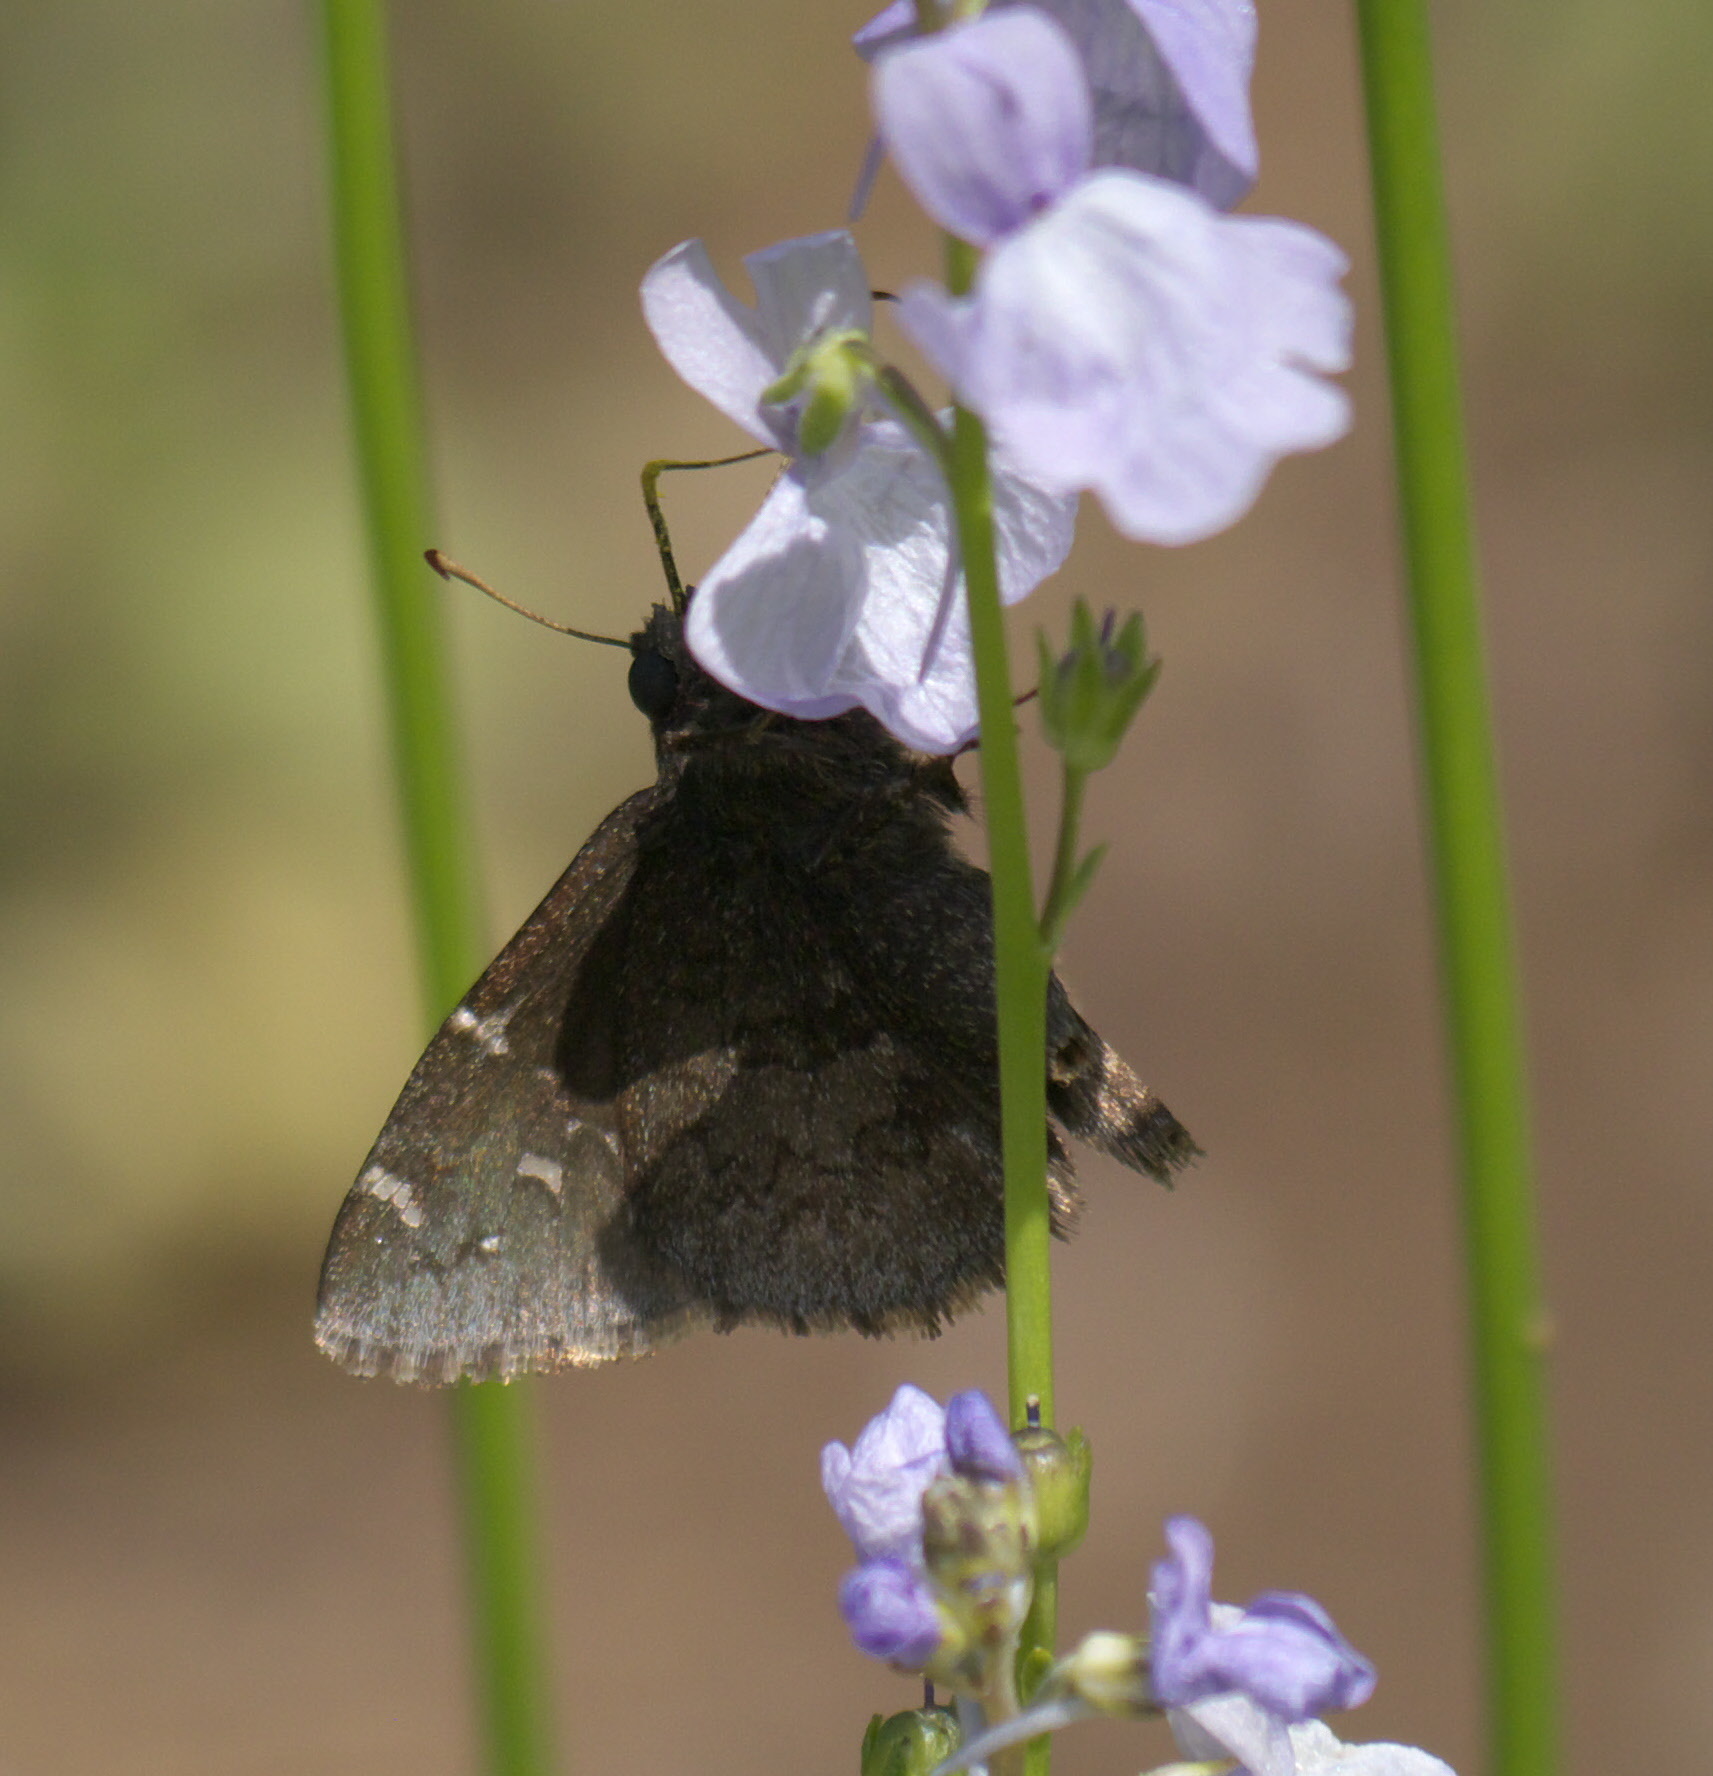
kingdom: Animalia
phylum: Arthropoda
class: Insecta
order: Lepidoptera
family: Hesperiidae
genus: Thorybes
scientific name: Thorybes pylades
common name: Northern cloudywing
